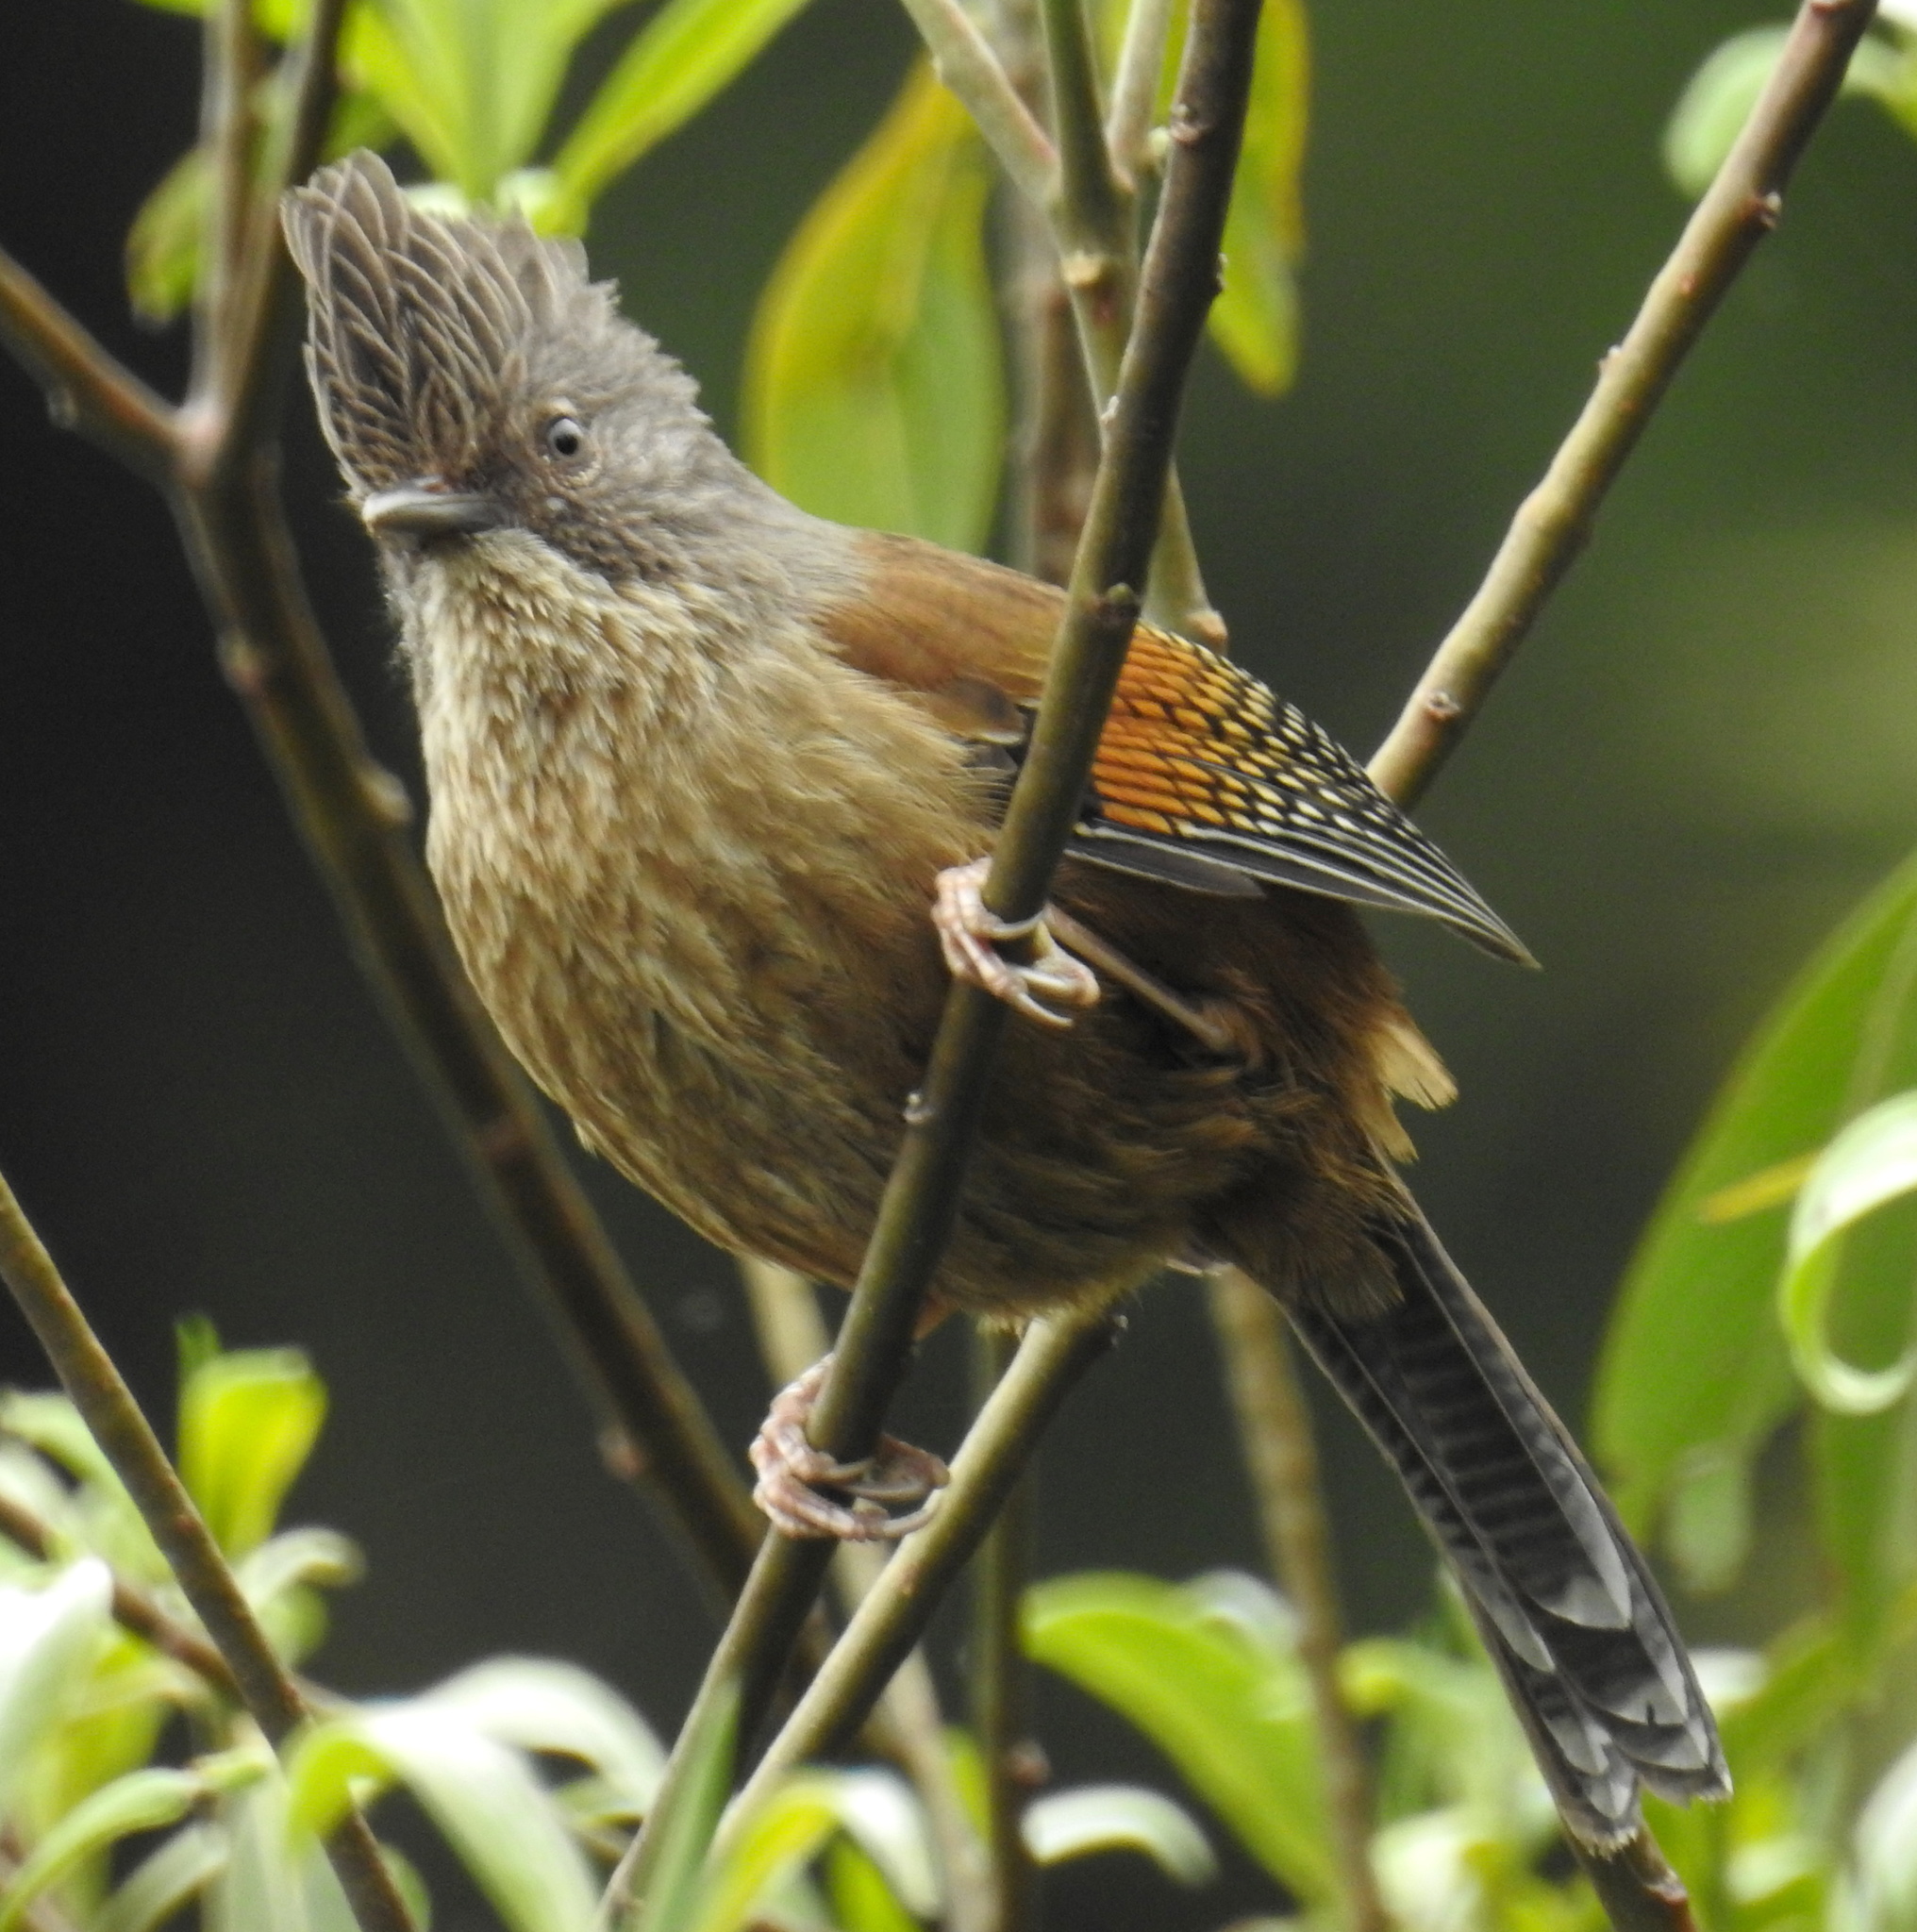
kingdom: Animalia
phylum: Chordata
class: Aves
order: Passeriformes
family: Leiothrichidae
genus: Actinodura
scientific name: Actinodura waldeni
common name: Streak-throated barwing
